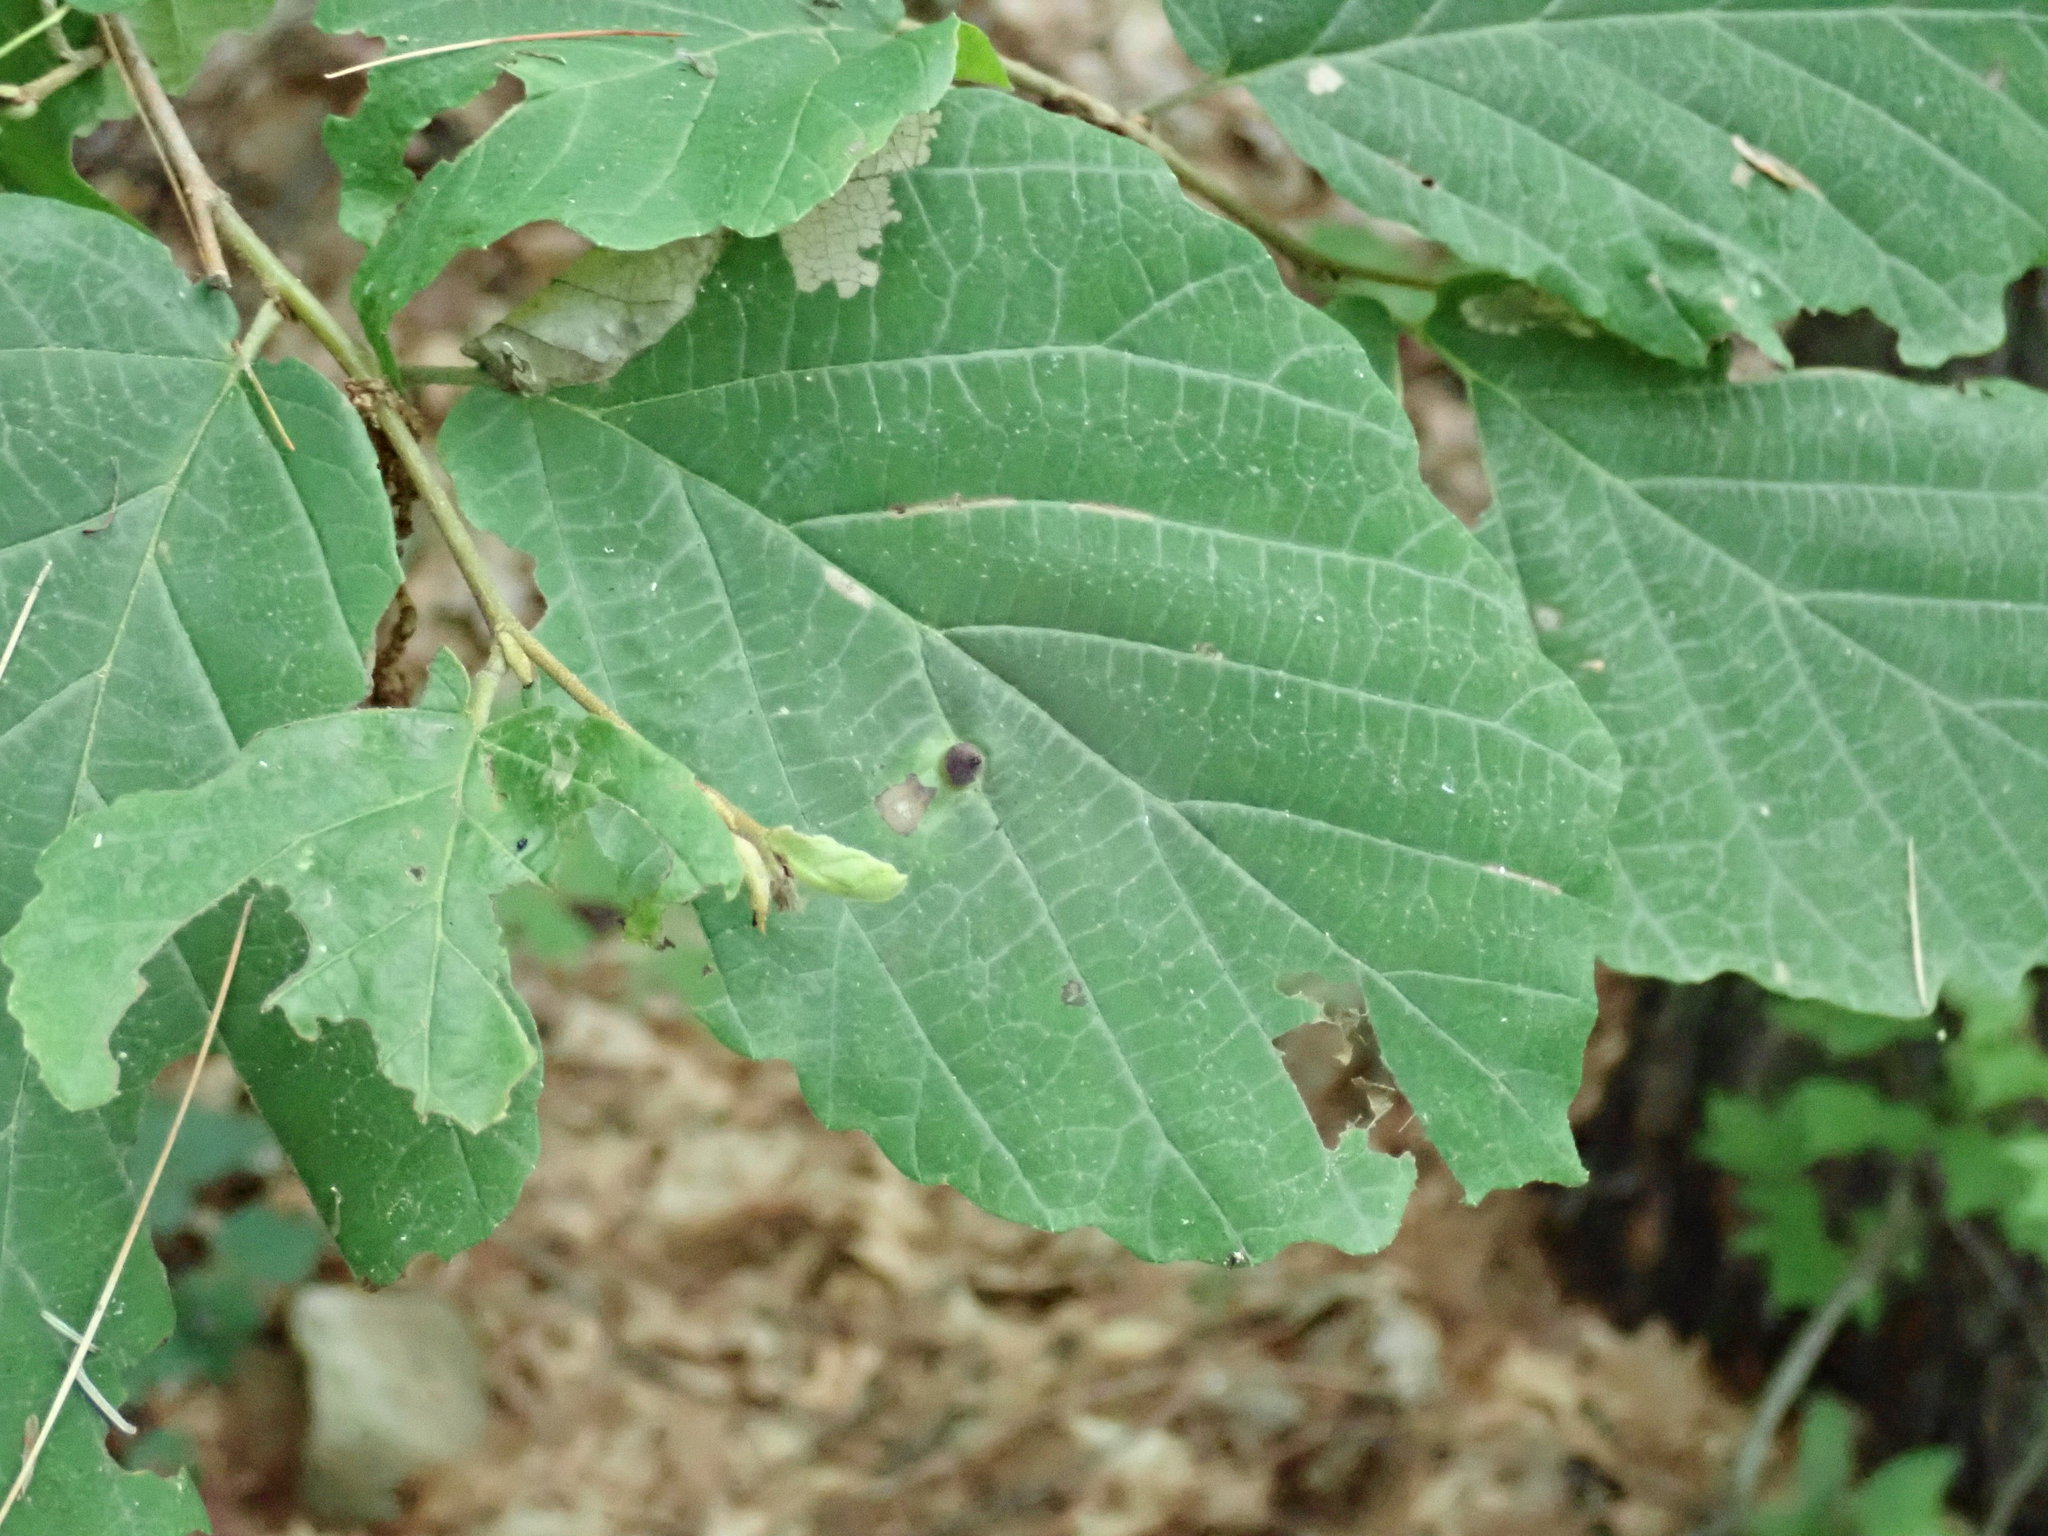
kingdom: Plantae
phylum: Tracheophyta
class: Magnoliopsida
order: Saxifragales
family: Hamamelidaceae
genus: Hamamelis
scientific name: Hamamelis virginiana
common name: Witch-hazel
